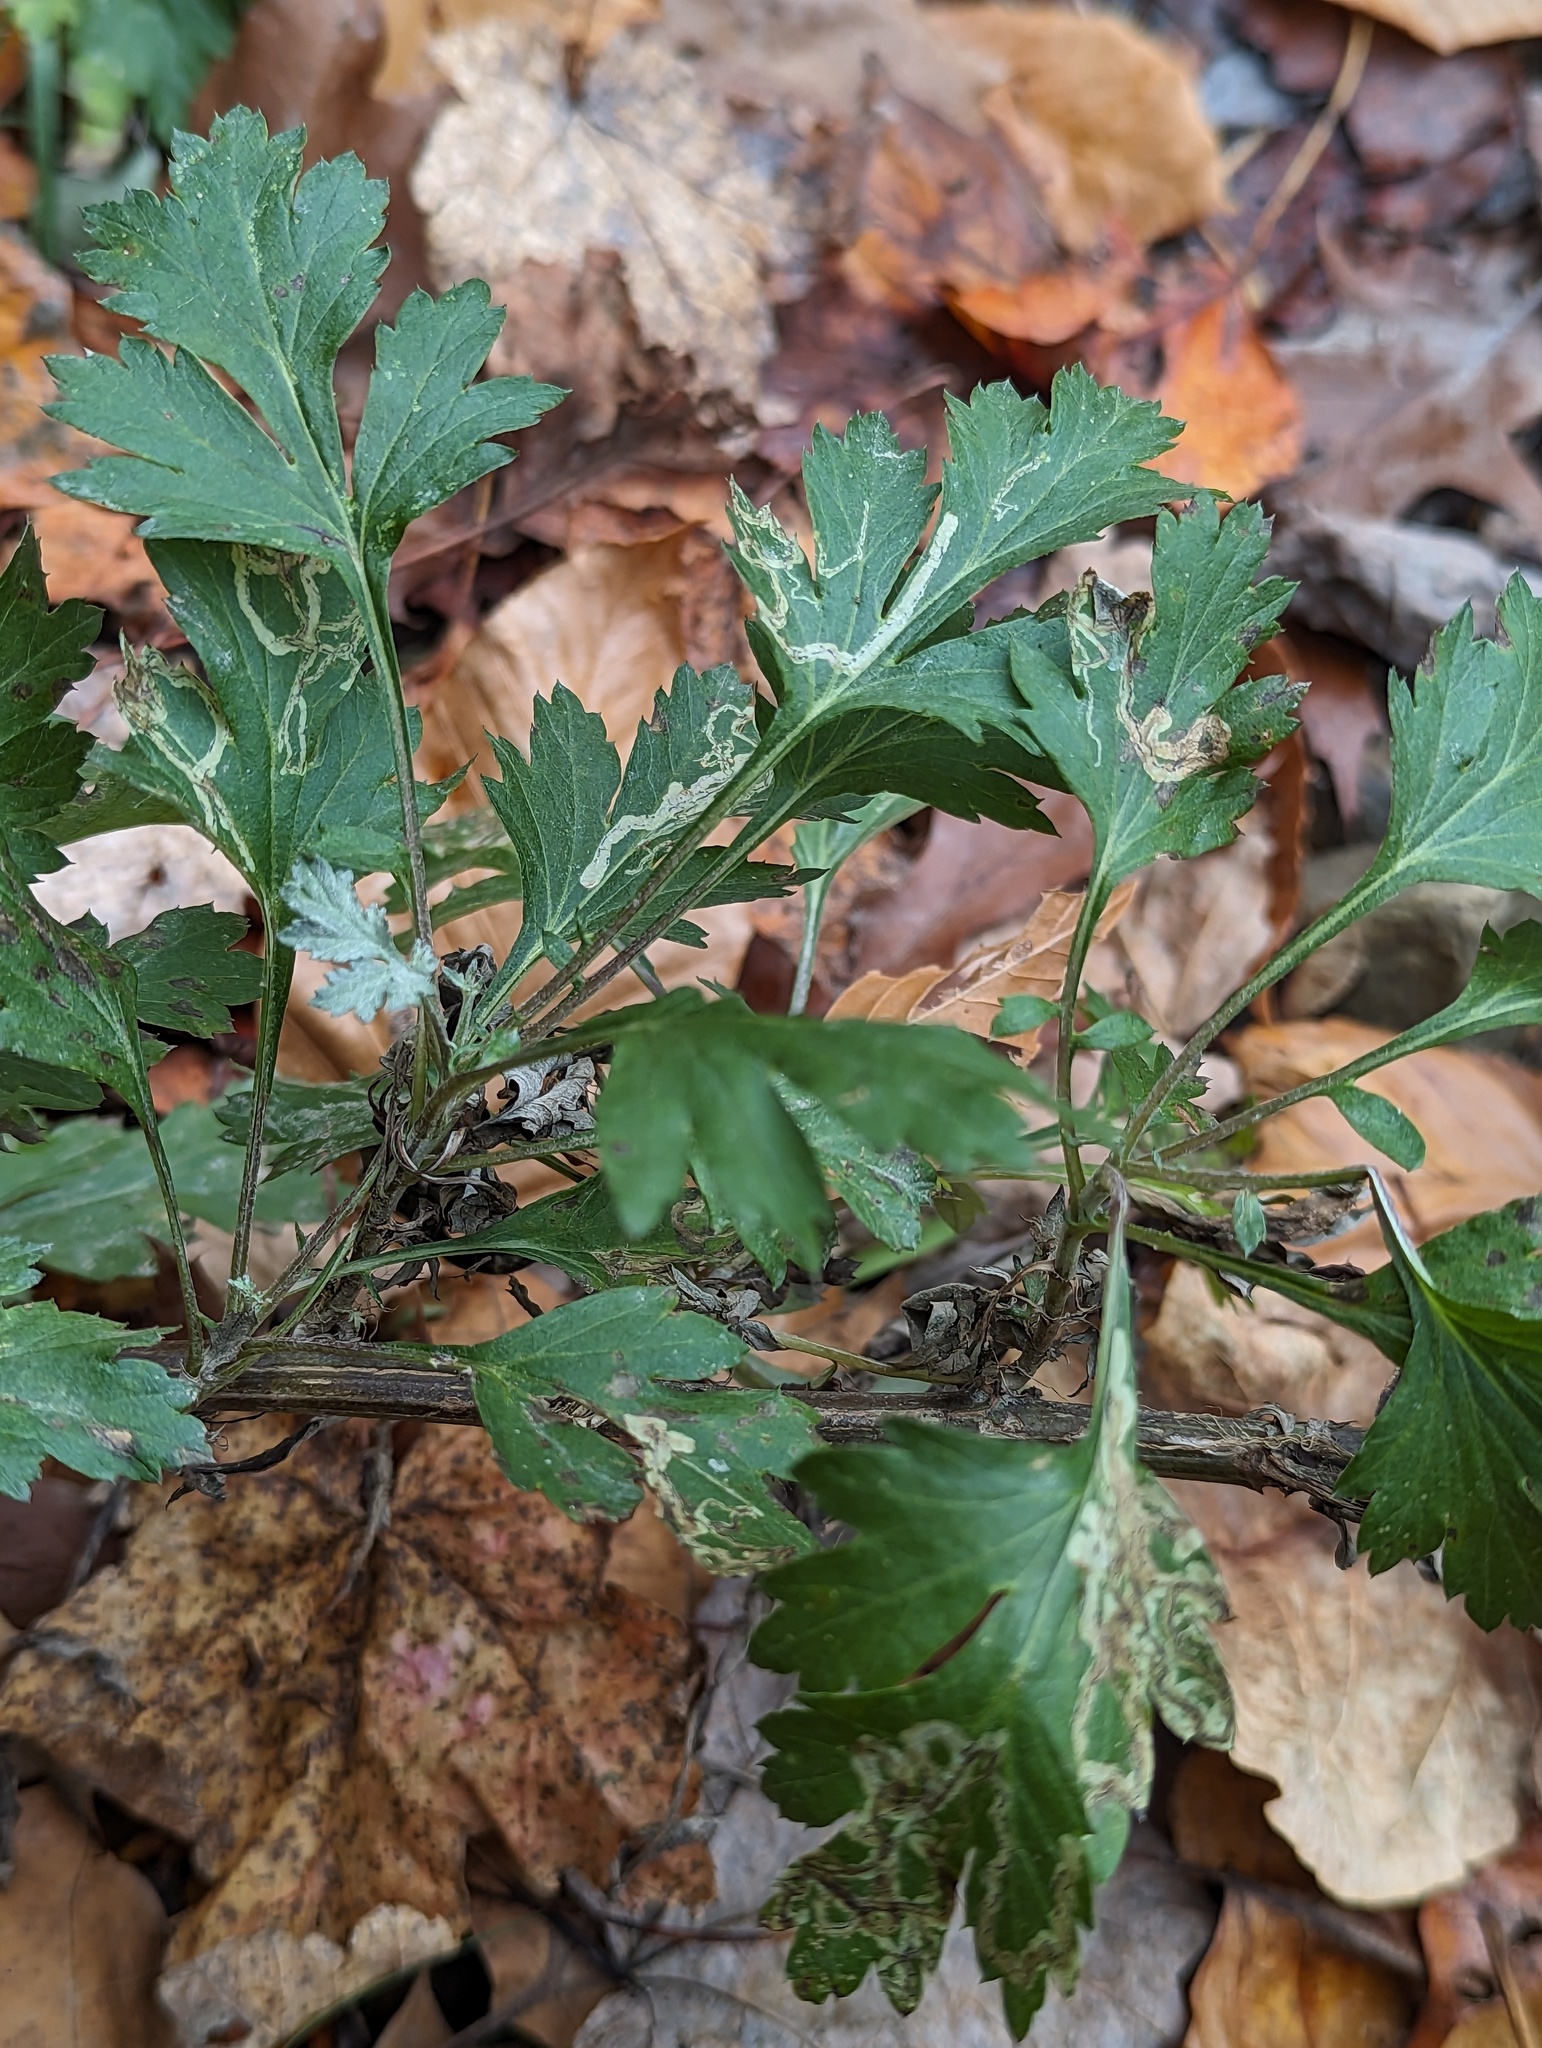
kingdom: Plantae
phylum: Tracheophyta
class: Magnoliopsida
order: Asterales
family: Asteraceae
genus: Artemisia
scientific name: Artemisia vulgaris
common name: Mugwort
